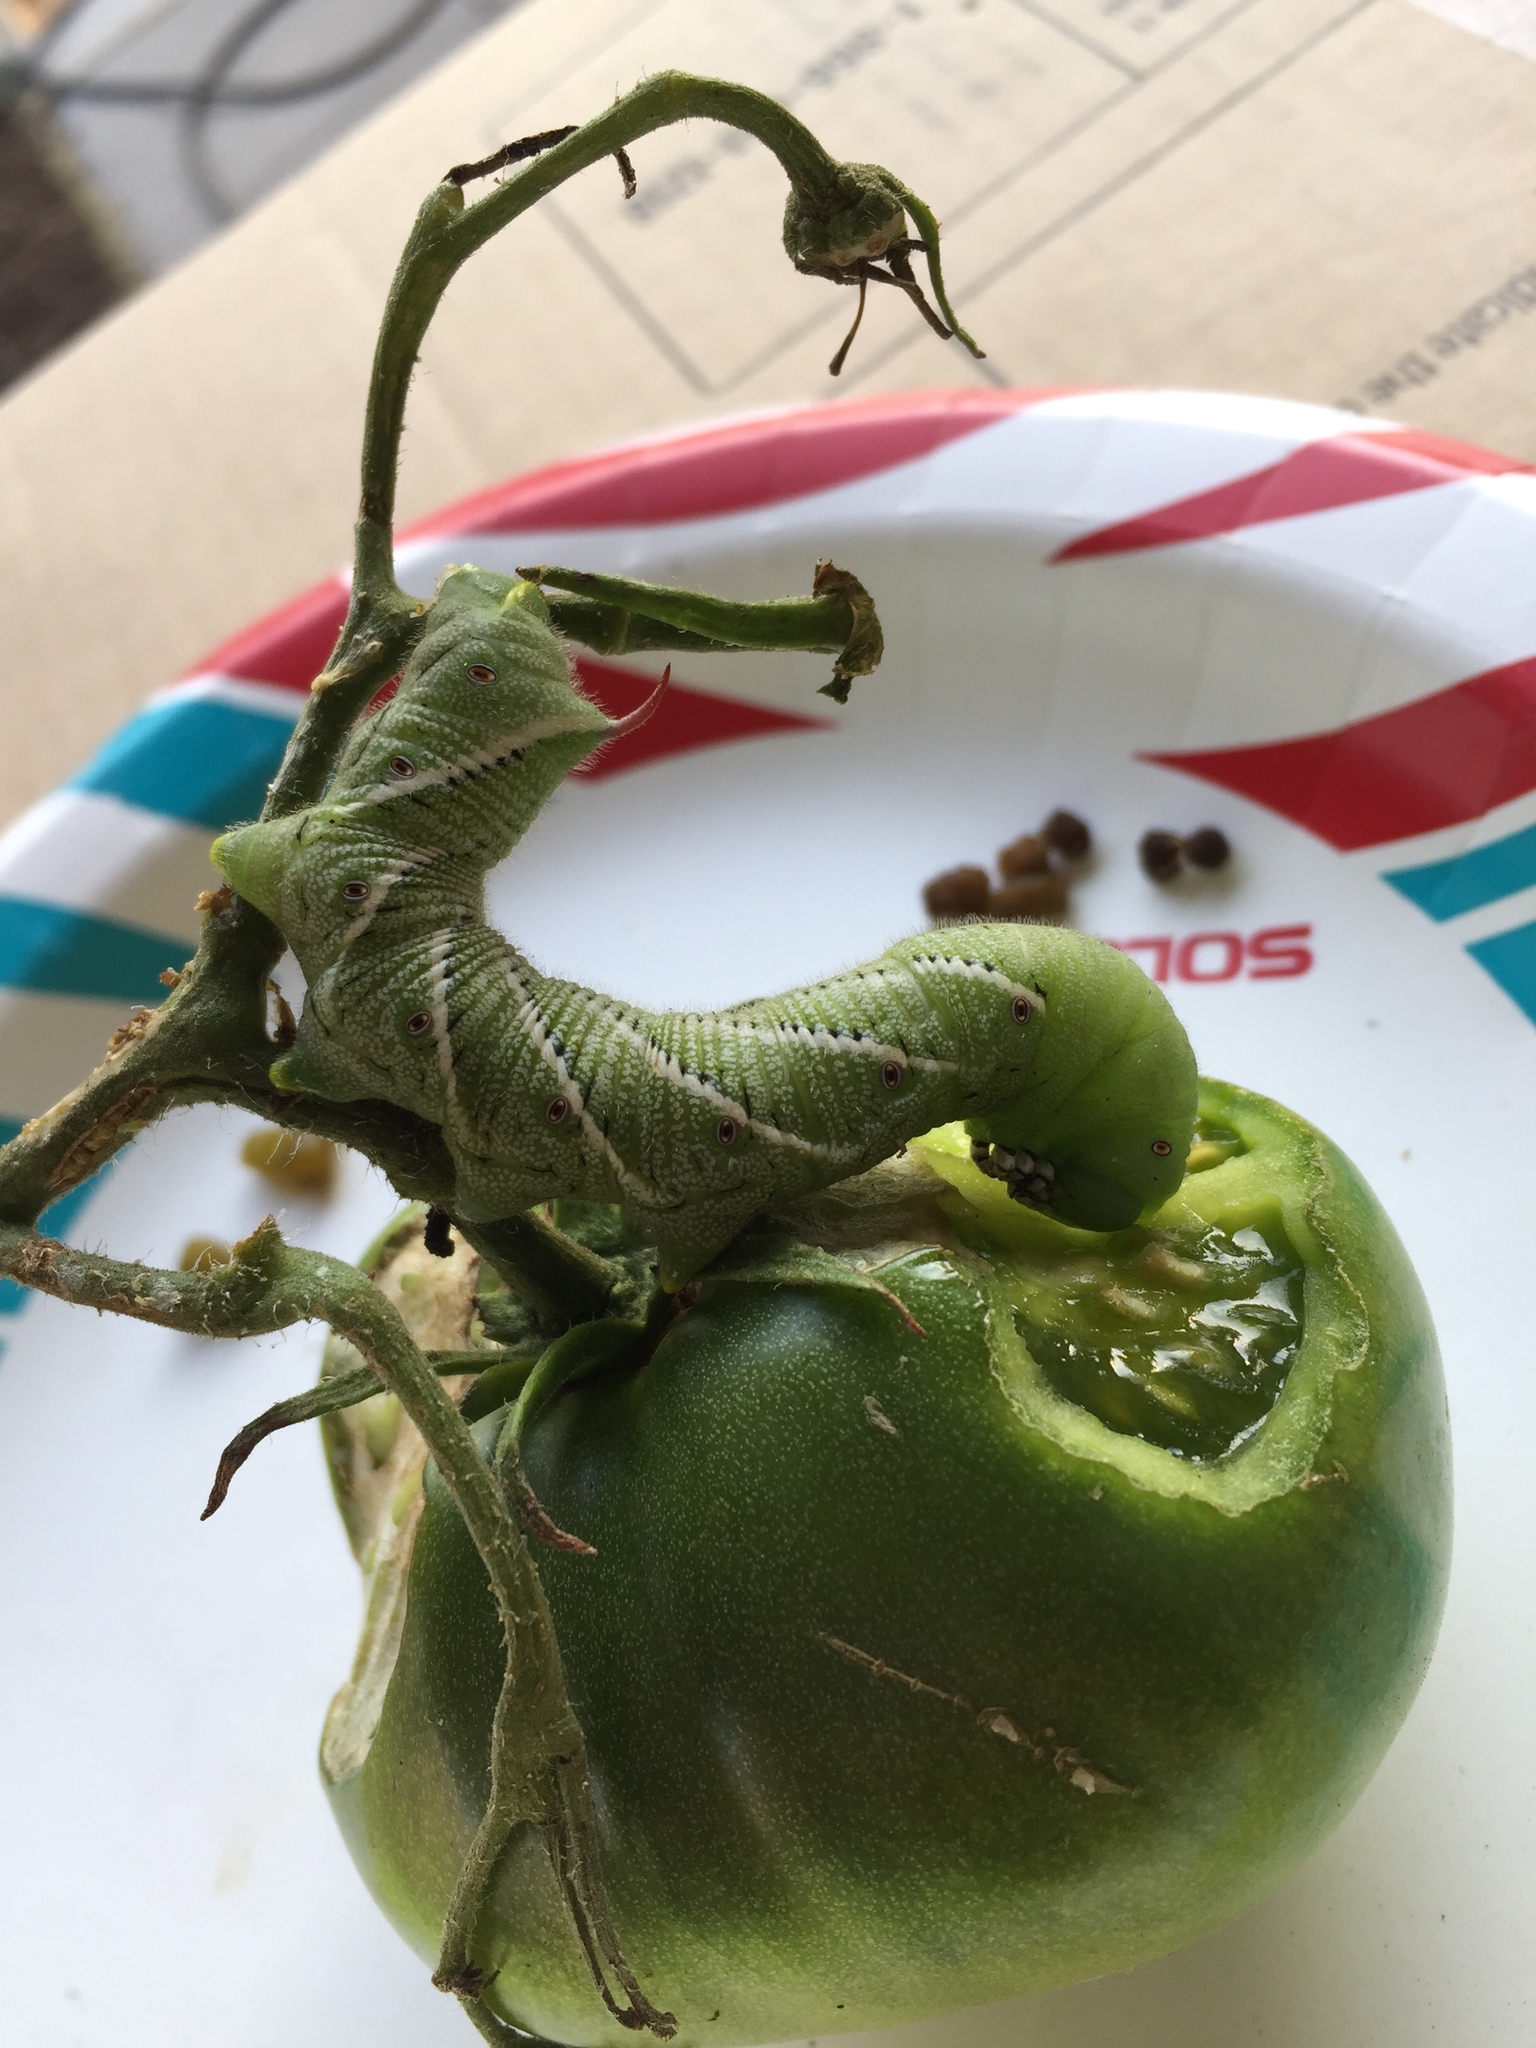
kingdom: Animalia
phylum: Arthropoda
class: Insecta
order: Lepidoptera
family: Sphingidae
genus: Manduca
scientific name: Manduca sexta
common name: Carolina sphinx
